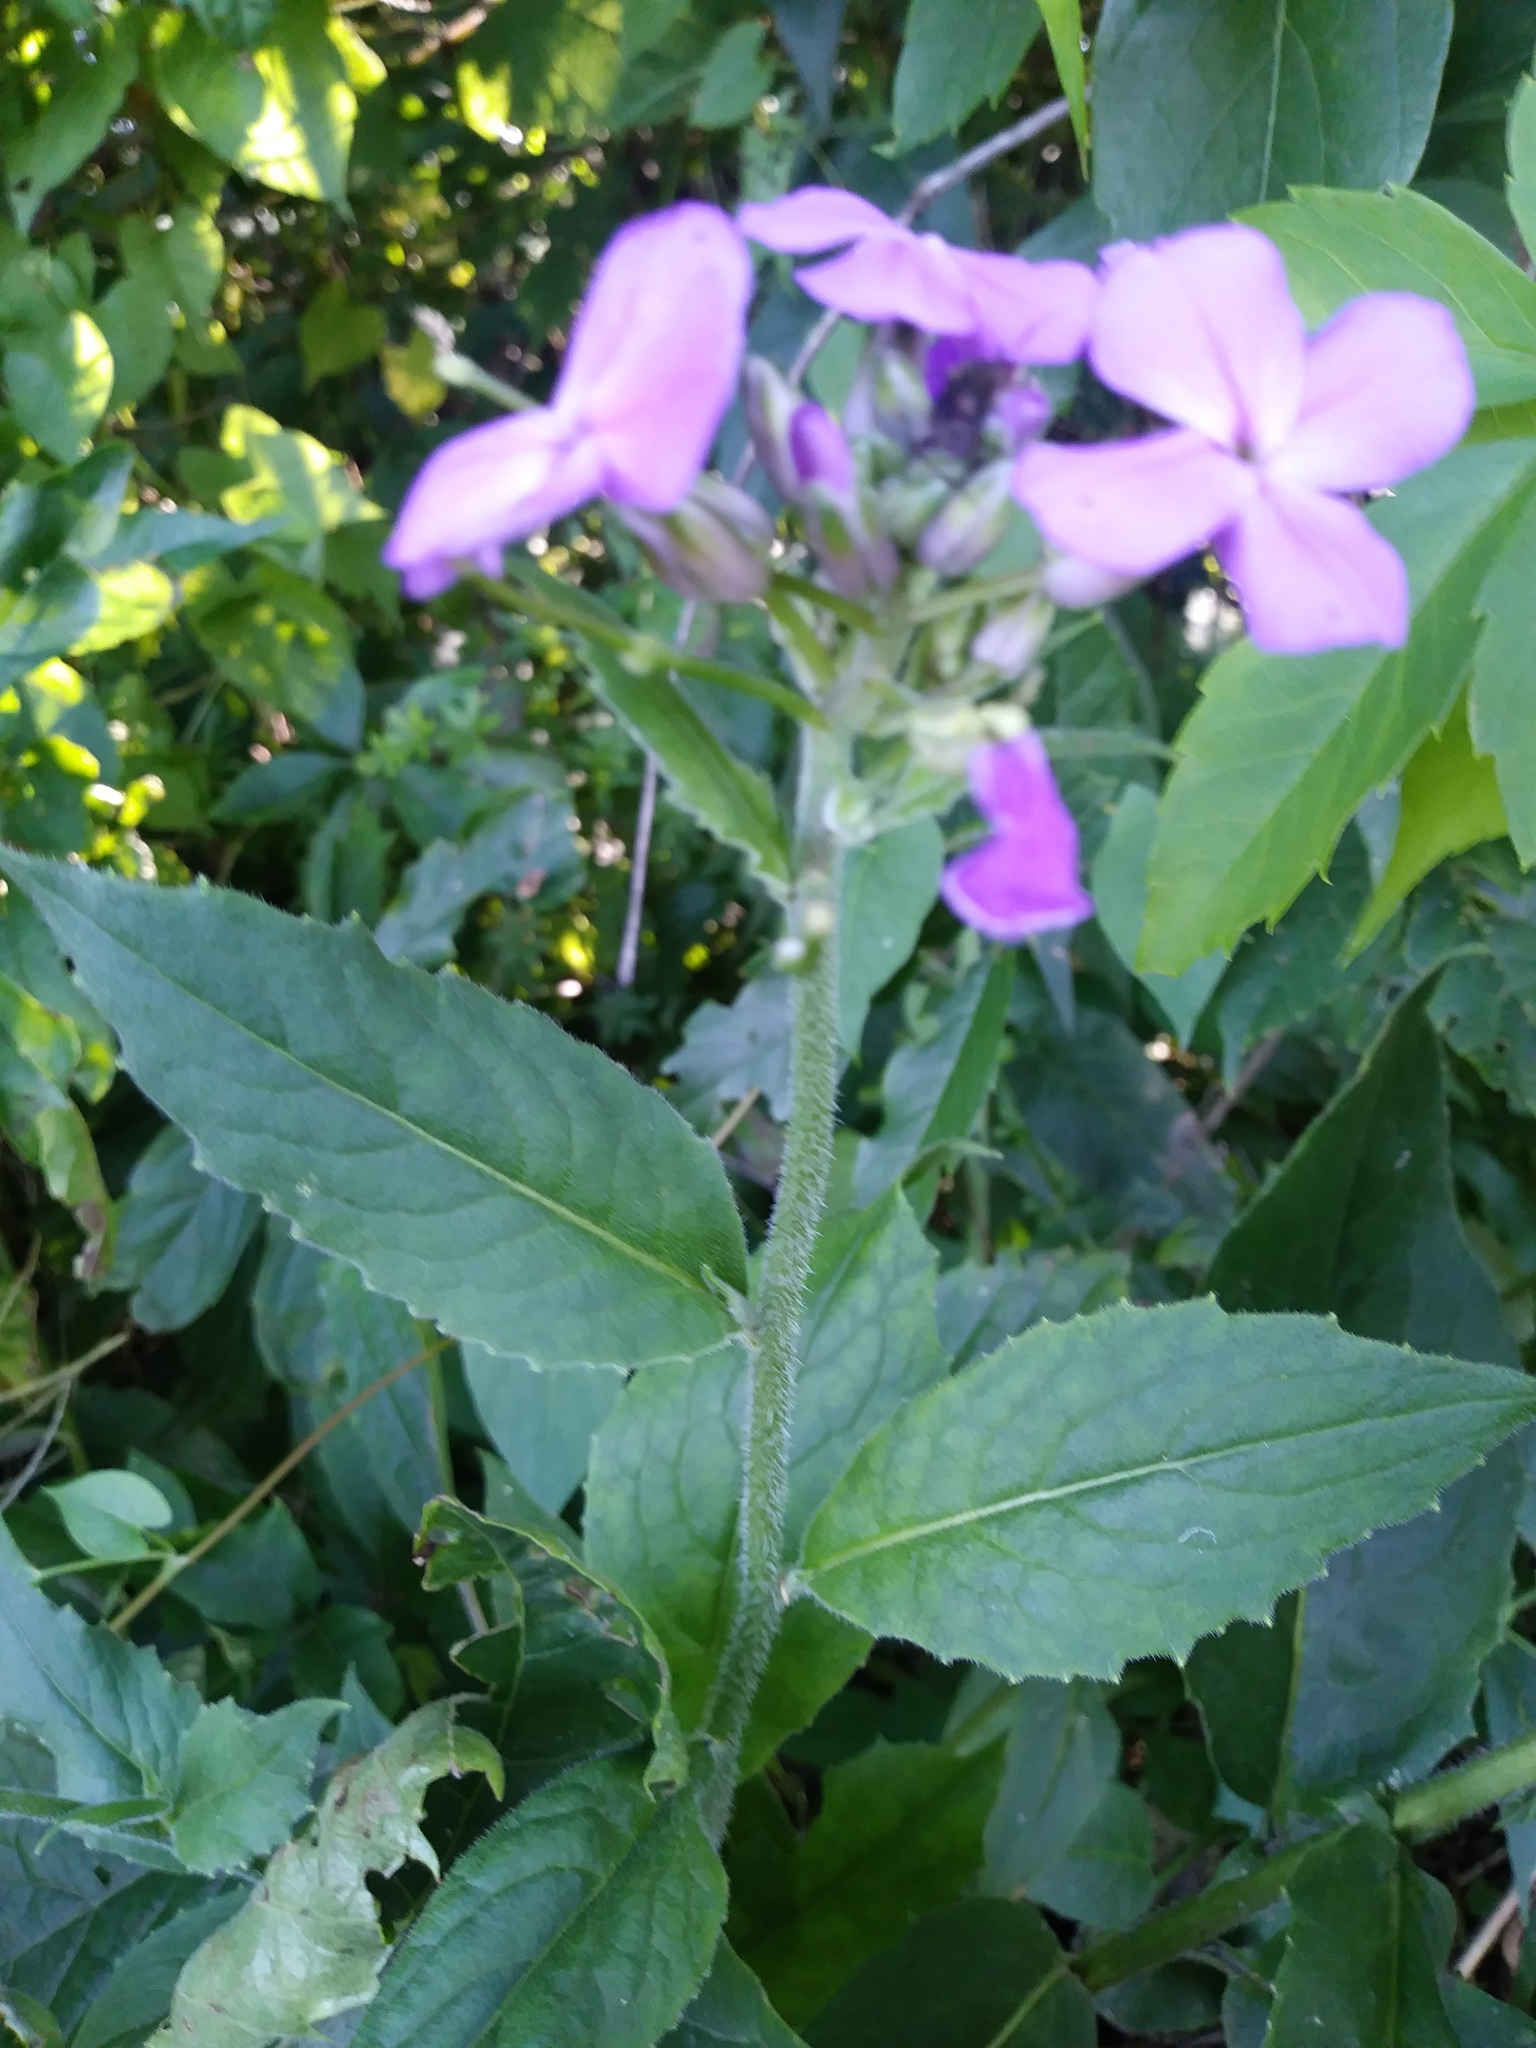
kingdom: Plantae
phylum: Tracheophyta
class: Magnoliopsida
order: Brassicales
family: Brassicaceae
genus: Hesperis
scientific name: Hesperis matronalis
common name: Dame's-violet
